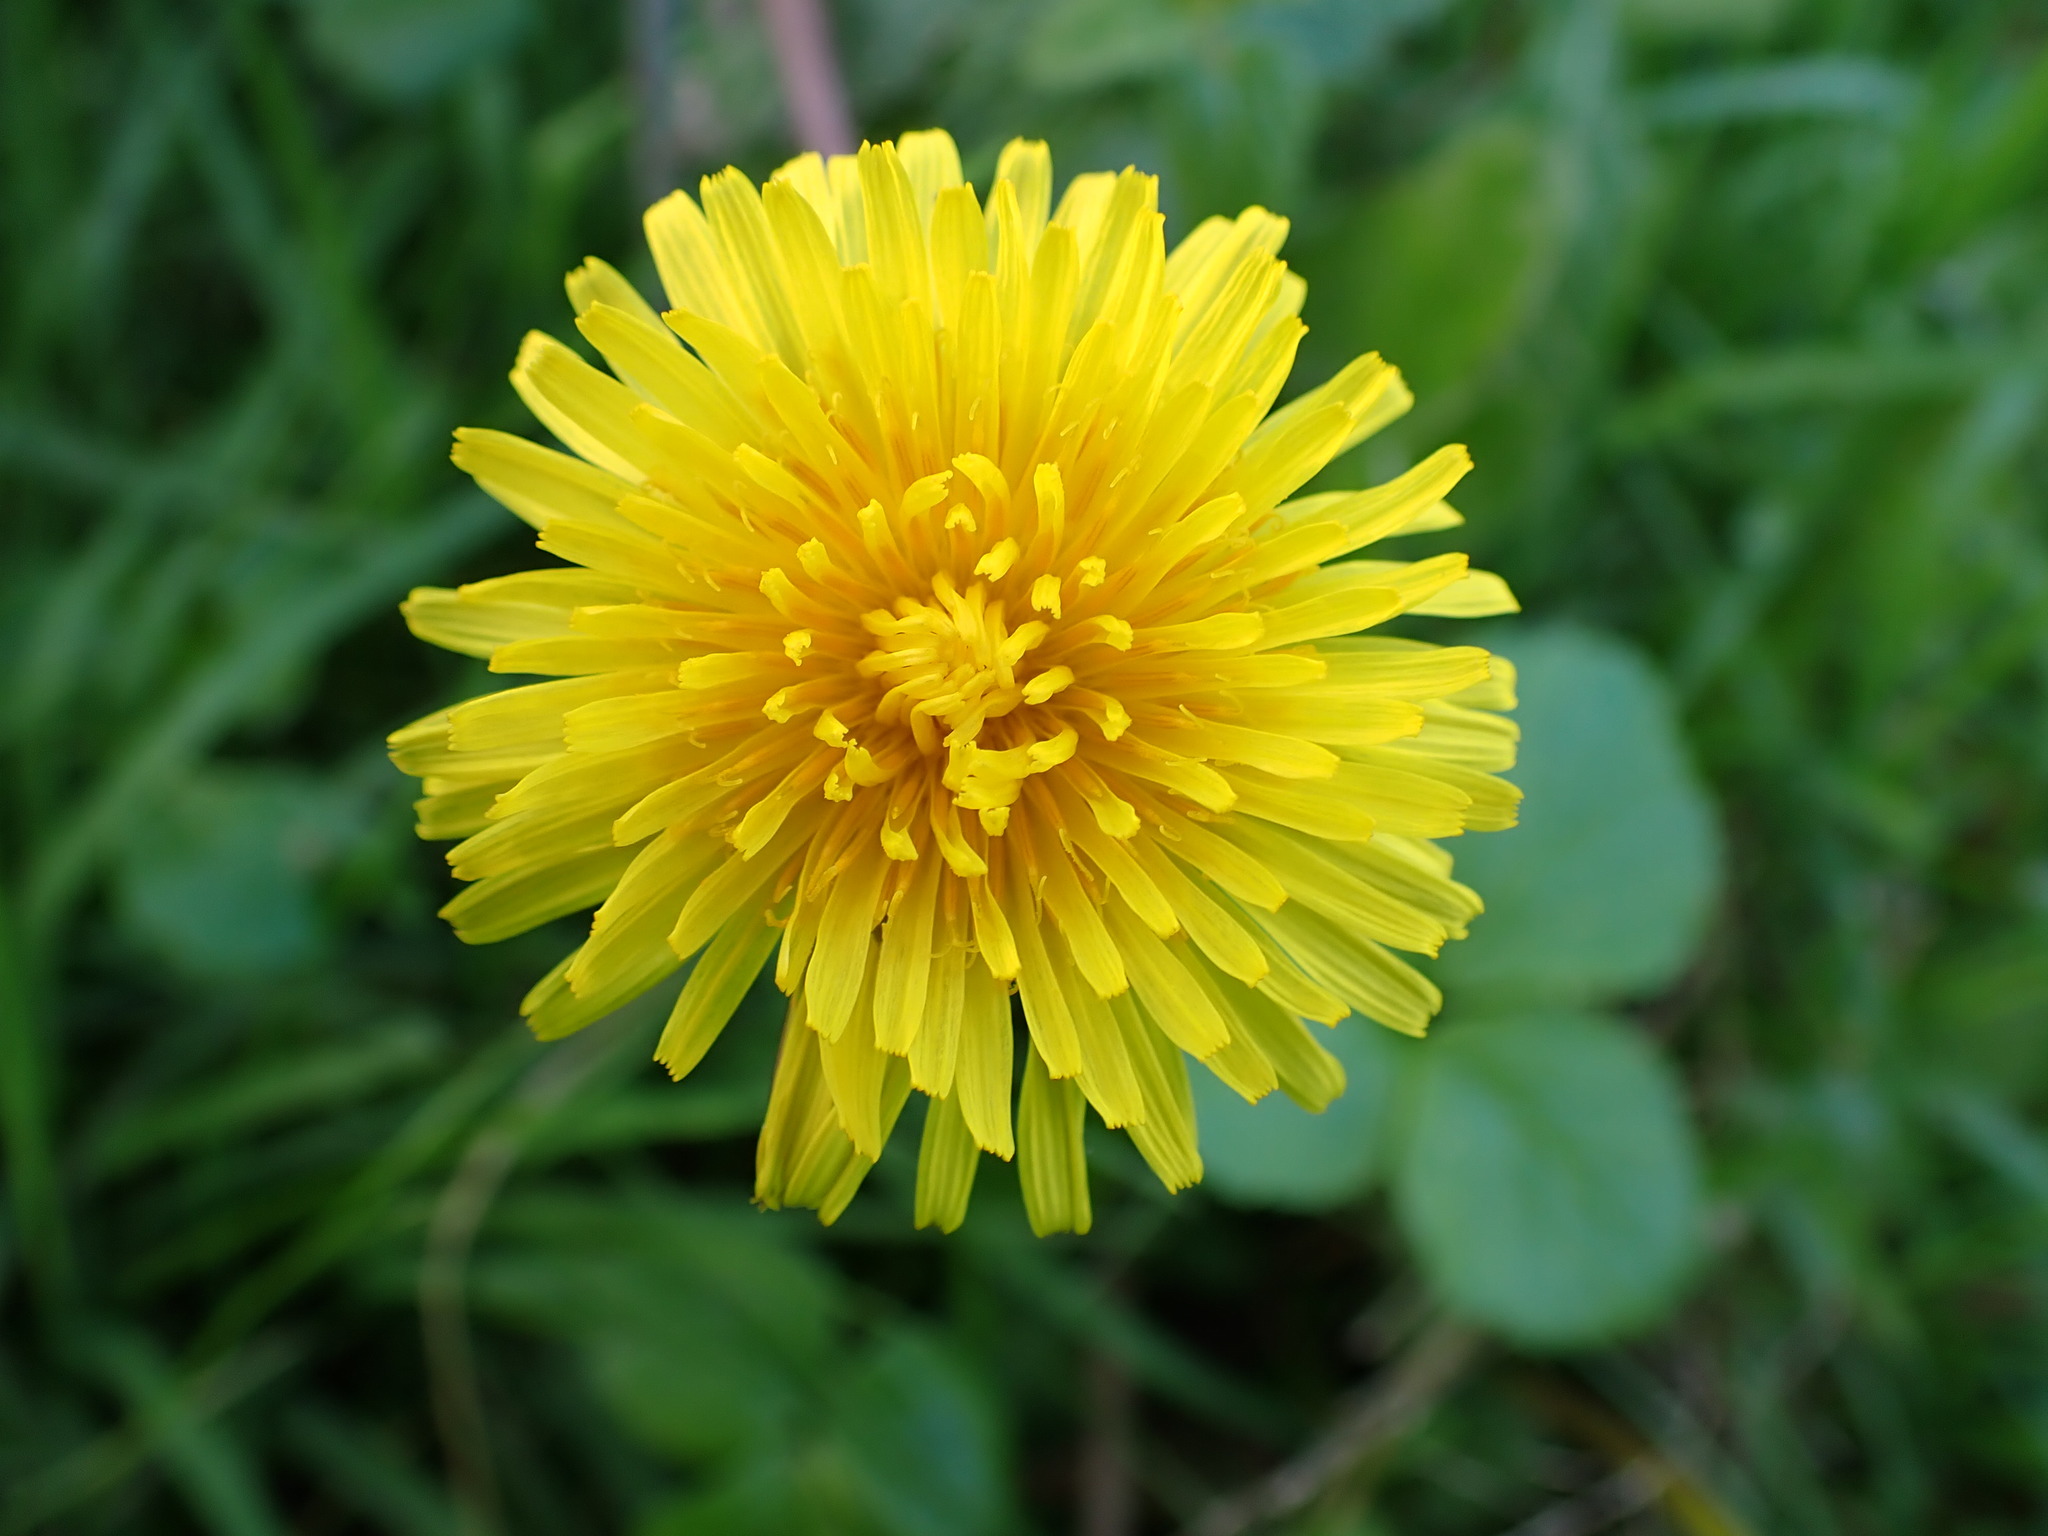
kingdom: Plantae
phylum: Tracheophyta
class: Magnoliopsida
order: Asterales
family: Asteraceae
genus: Taraxacum
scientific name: Taraxacum officinale
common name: Common dandelion
